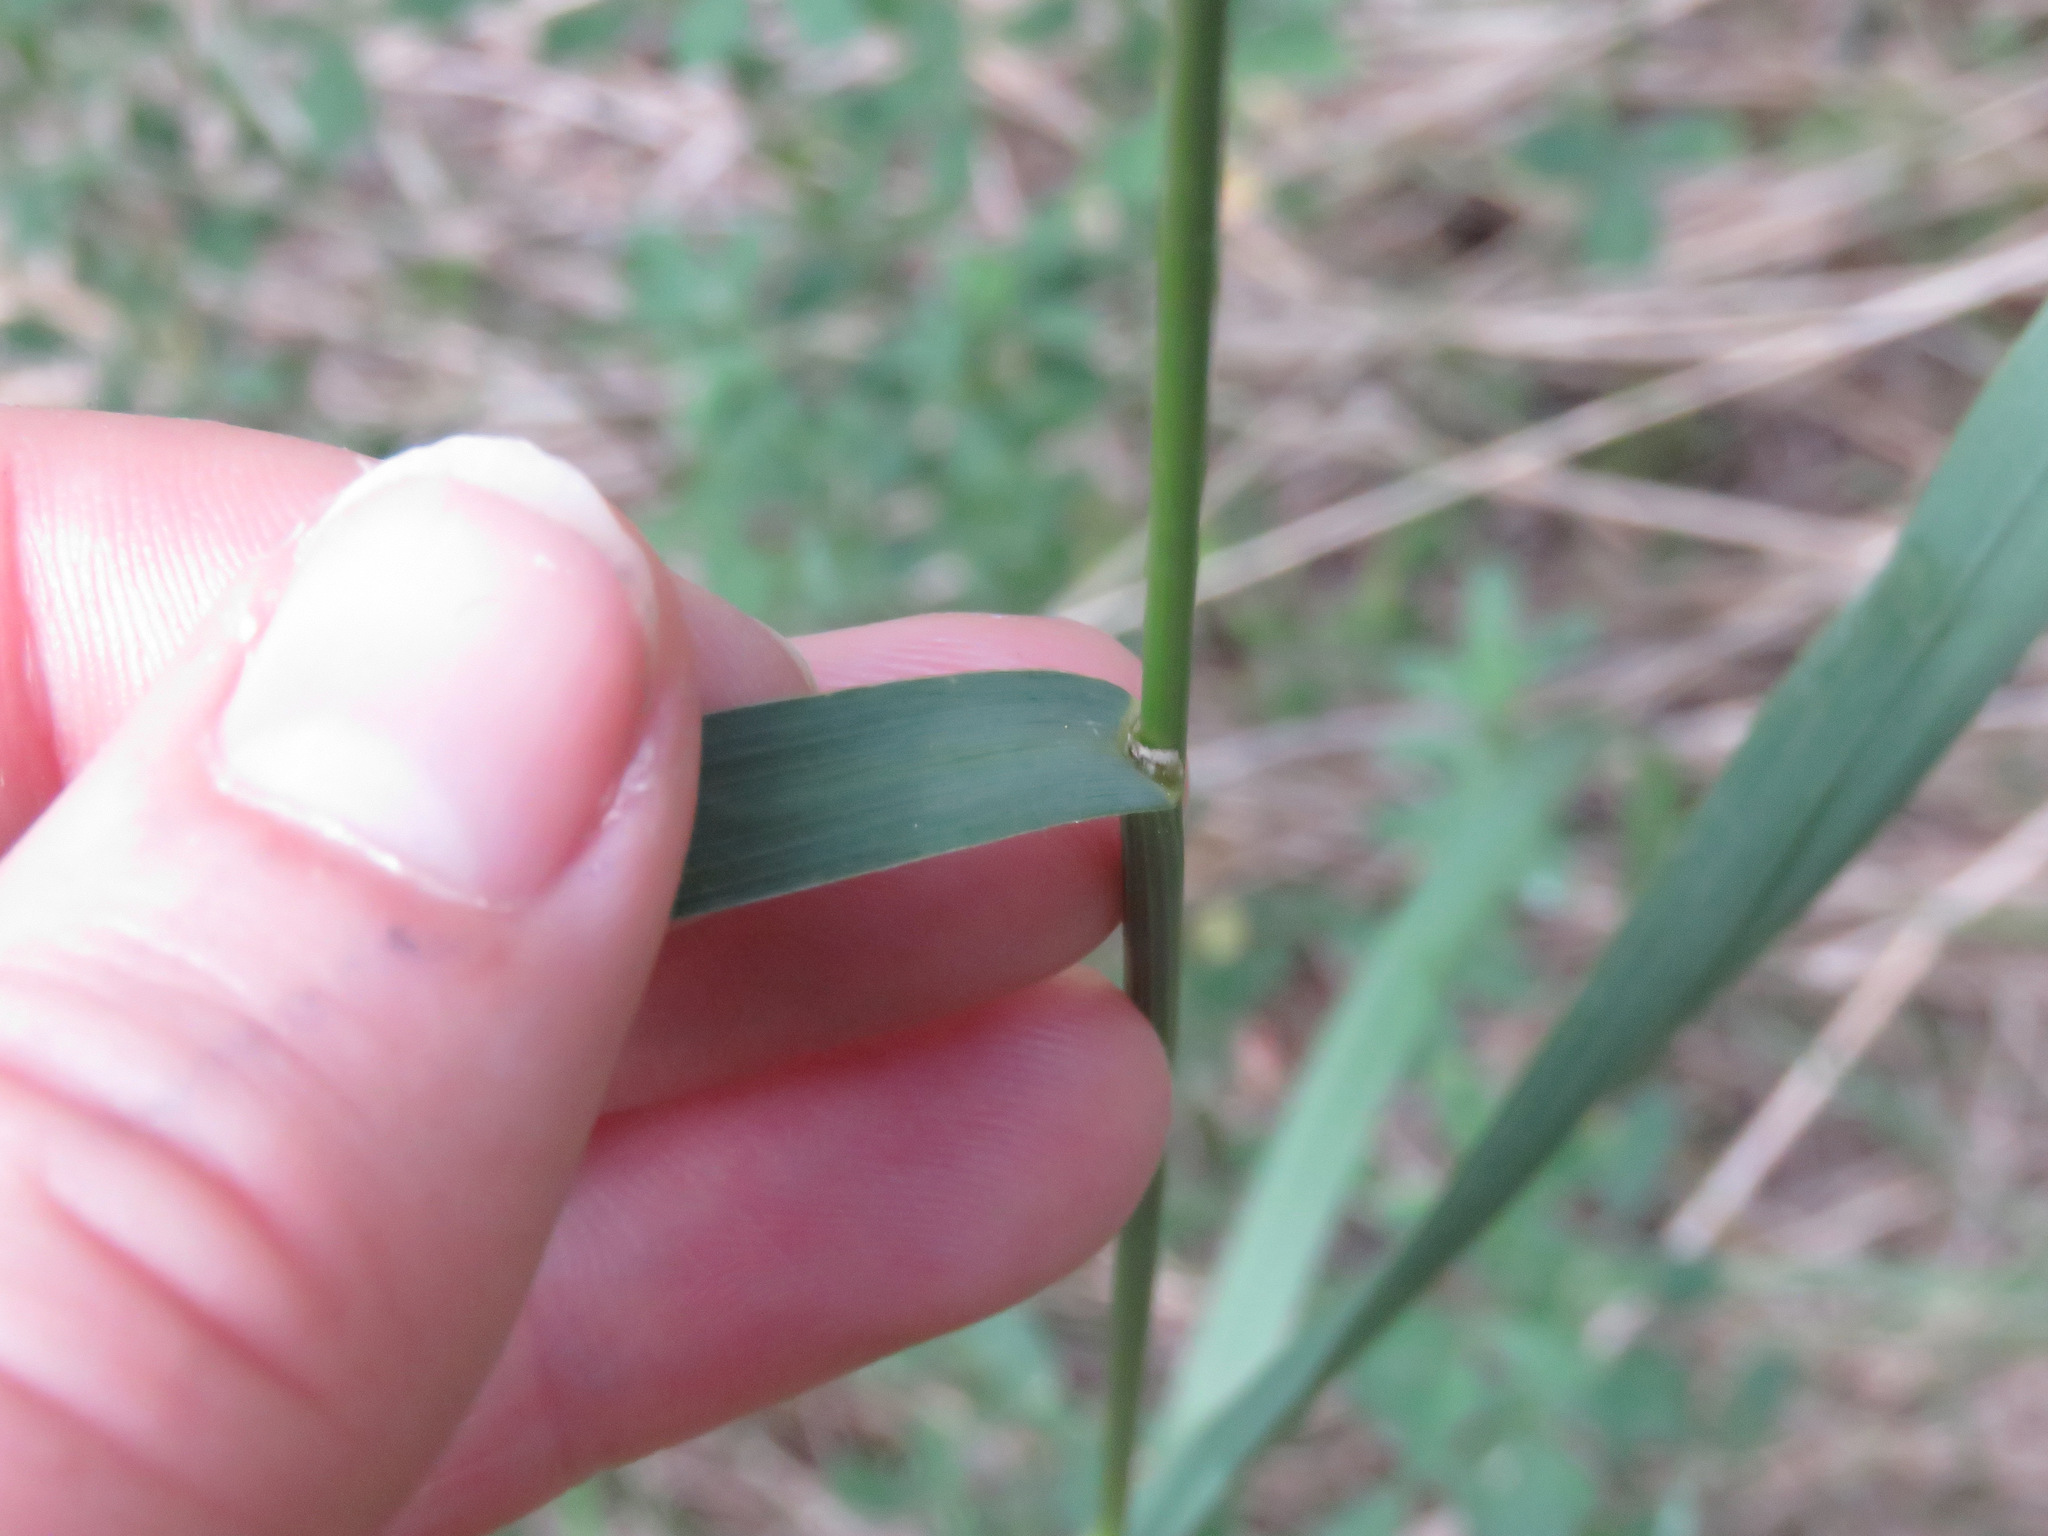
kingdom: Plantae
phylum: Tracheophyta
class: Liliopsida
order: Poales
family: Poaceae
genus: Bromus
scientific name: Bromus inermis
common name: Smooth brome
